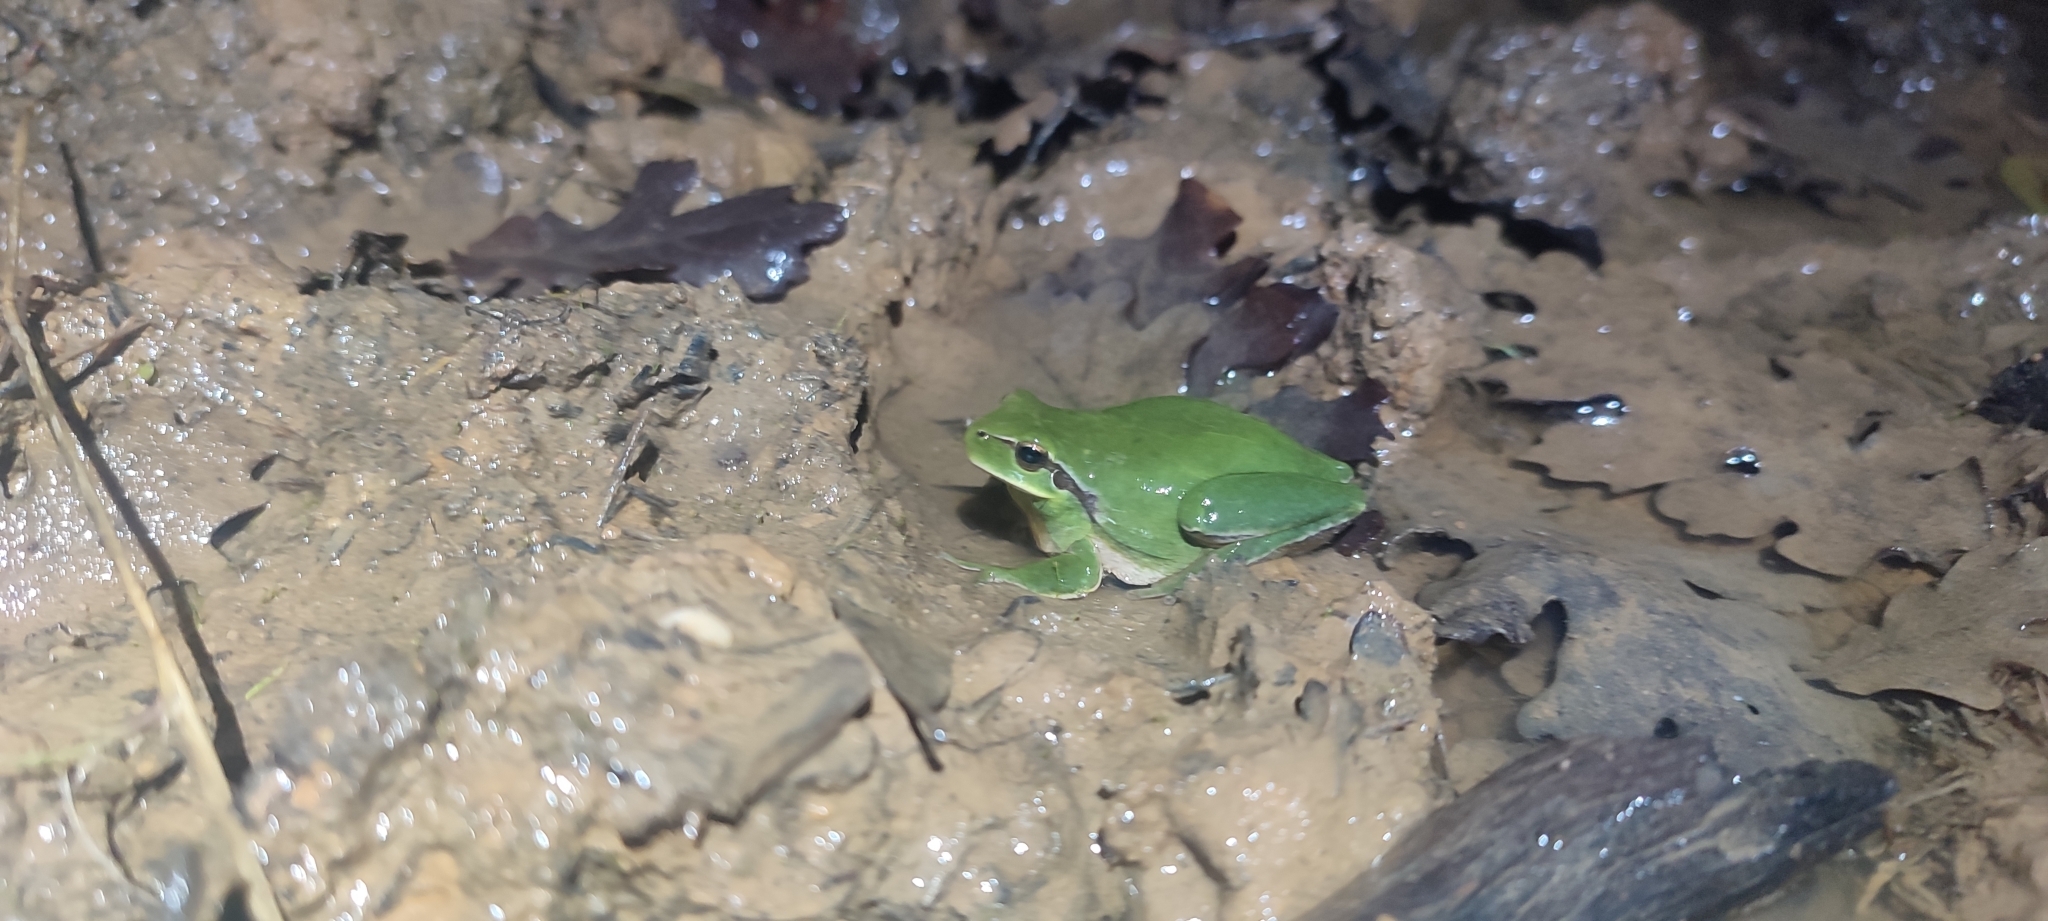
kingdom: Animalia
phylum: Chordata
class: Amphibia
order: Anura
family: Hylidae
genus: Hyla
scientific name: Hyla meridionalis
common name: Stripeless tree frog
